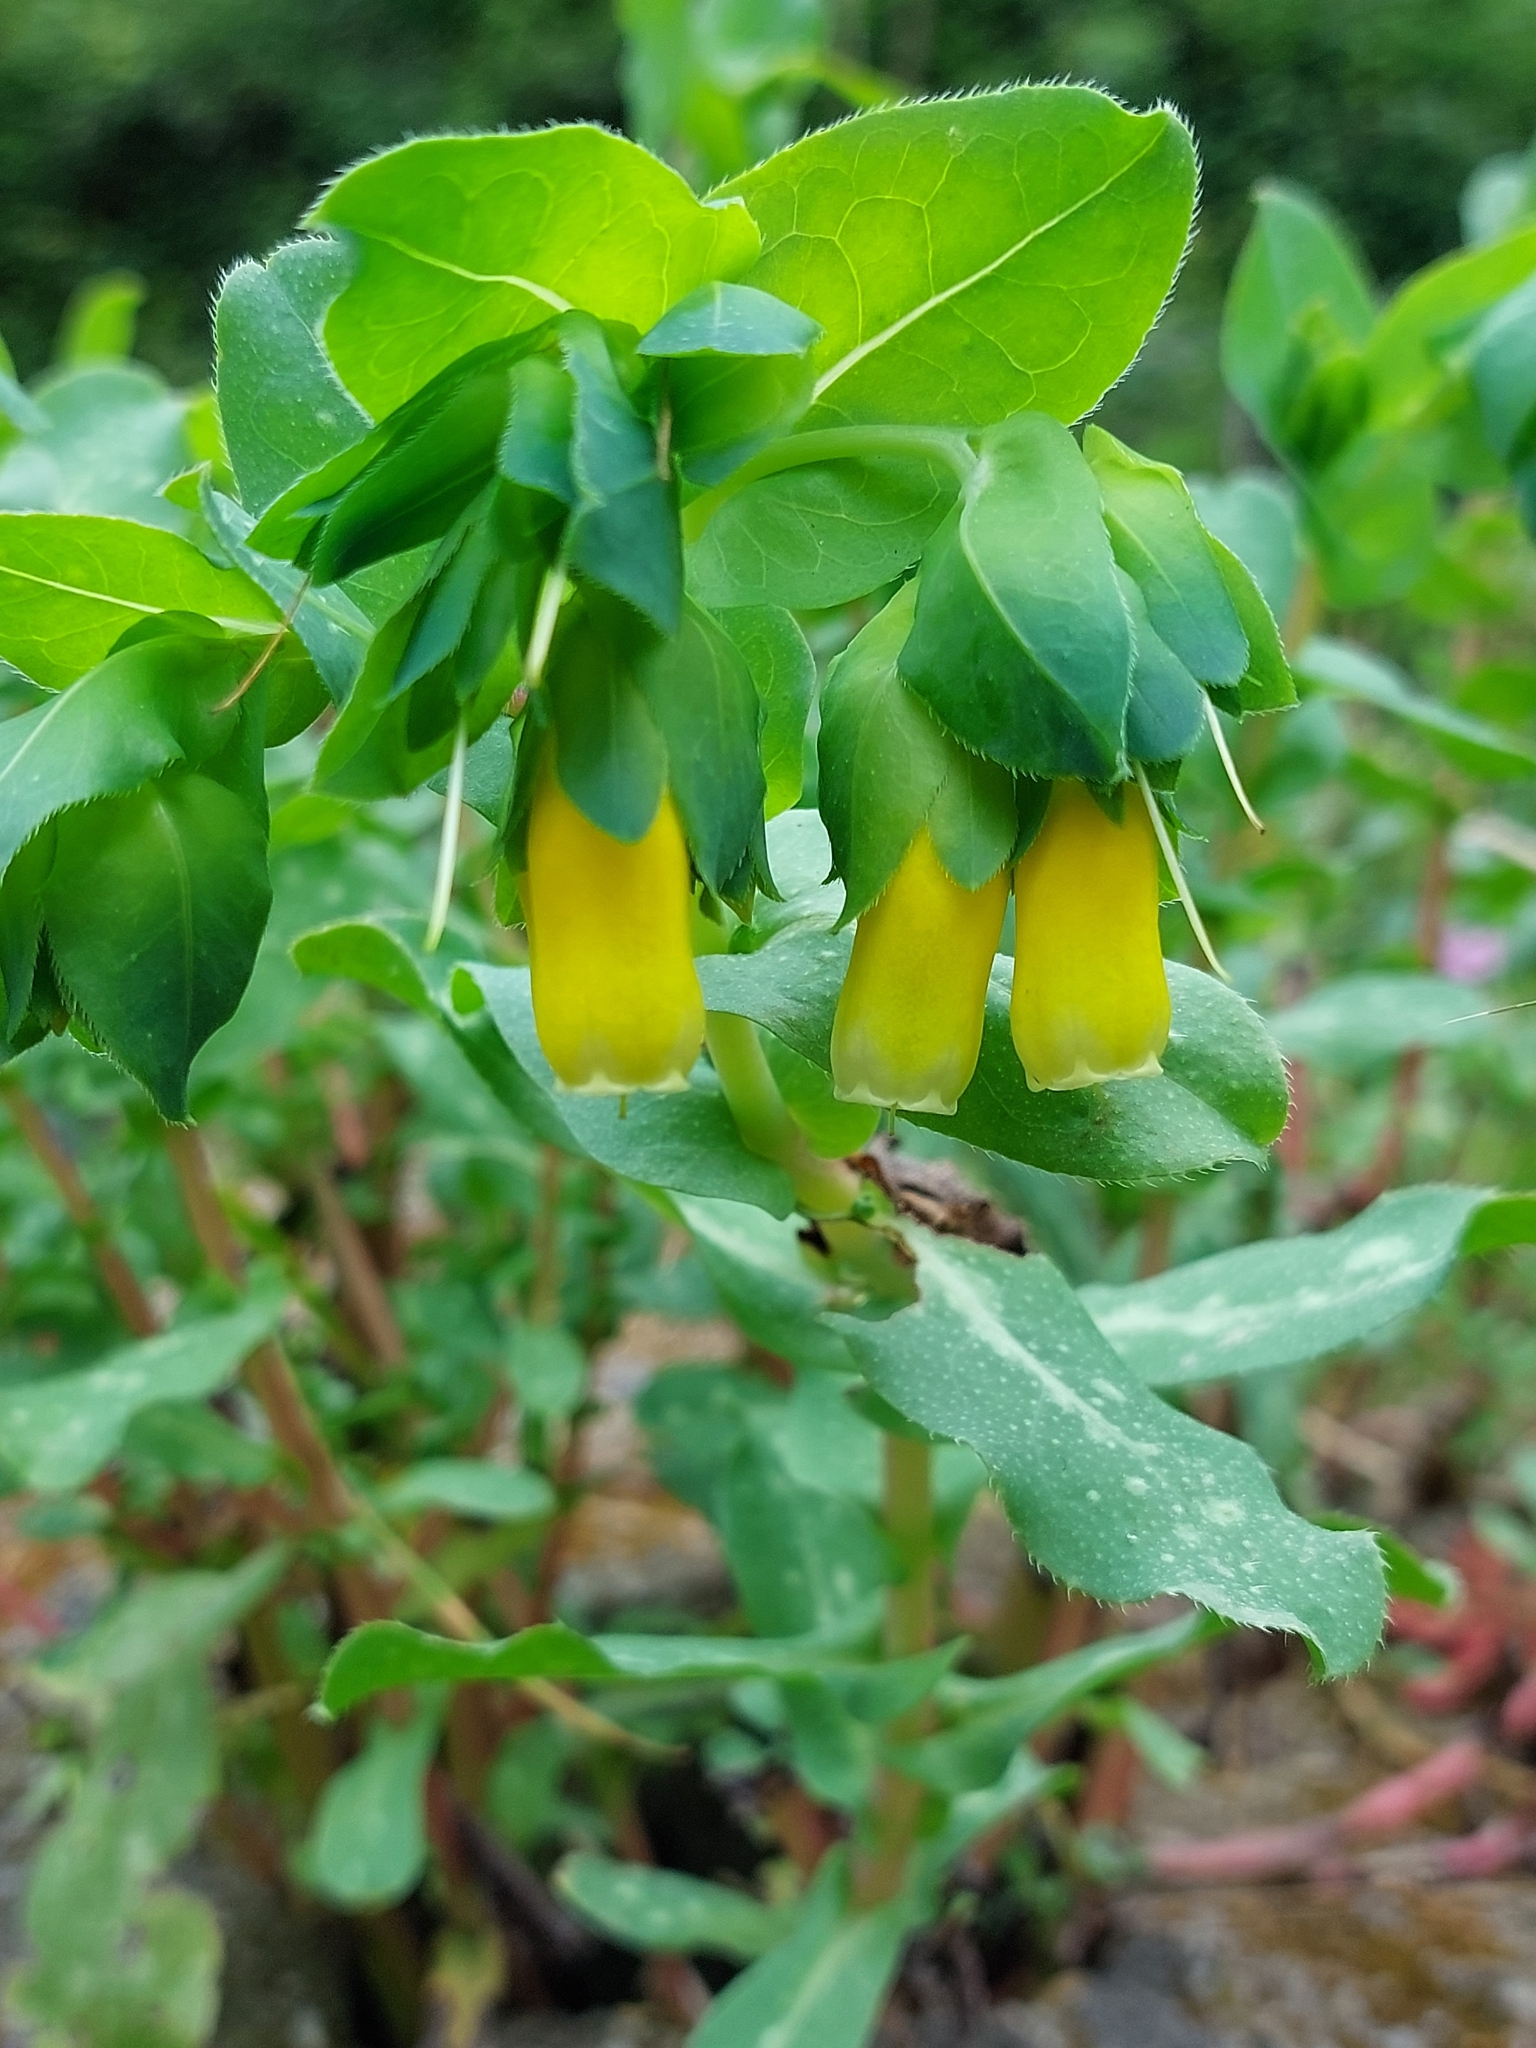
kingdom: Plantae
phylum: Tracheophyta
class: Magnoliopsida
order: Boraginales
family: Boraginaceae
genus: Cerinthe
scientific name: Cerinthe major
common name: Greater honeywort
